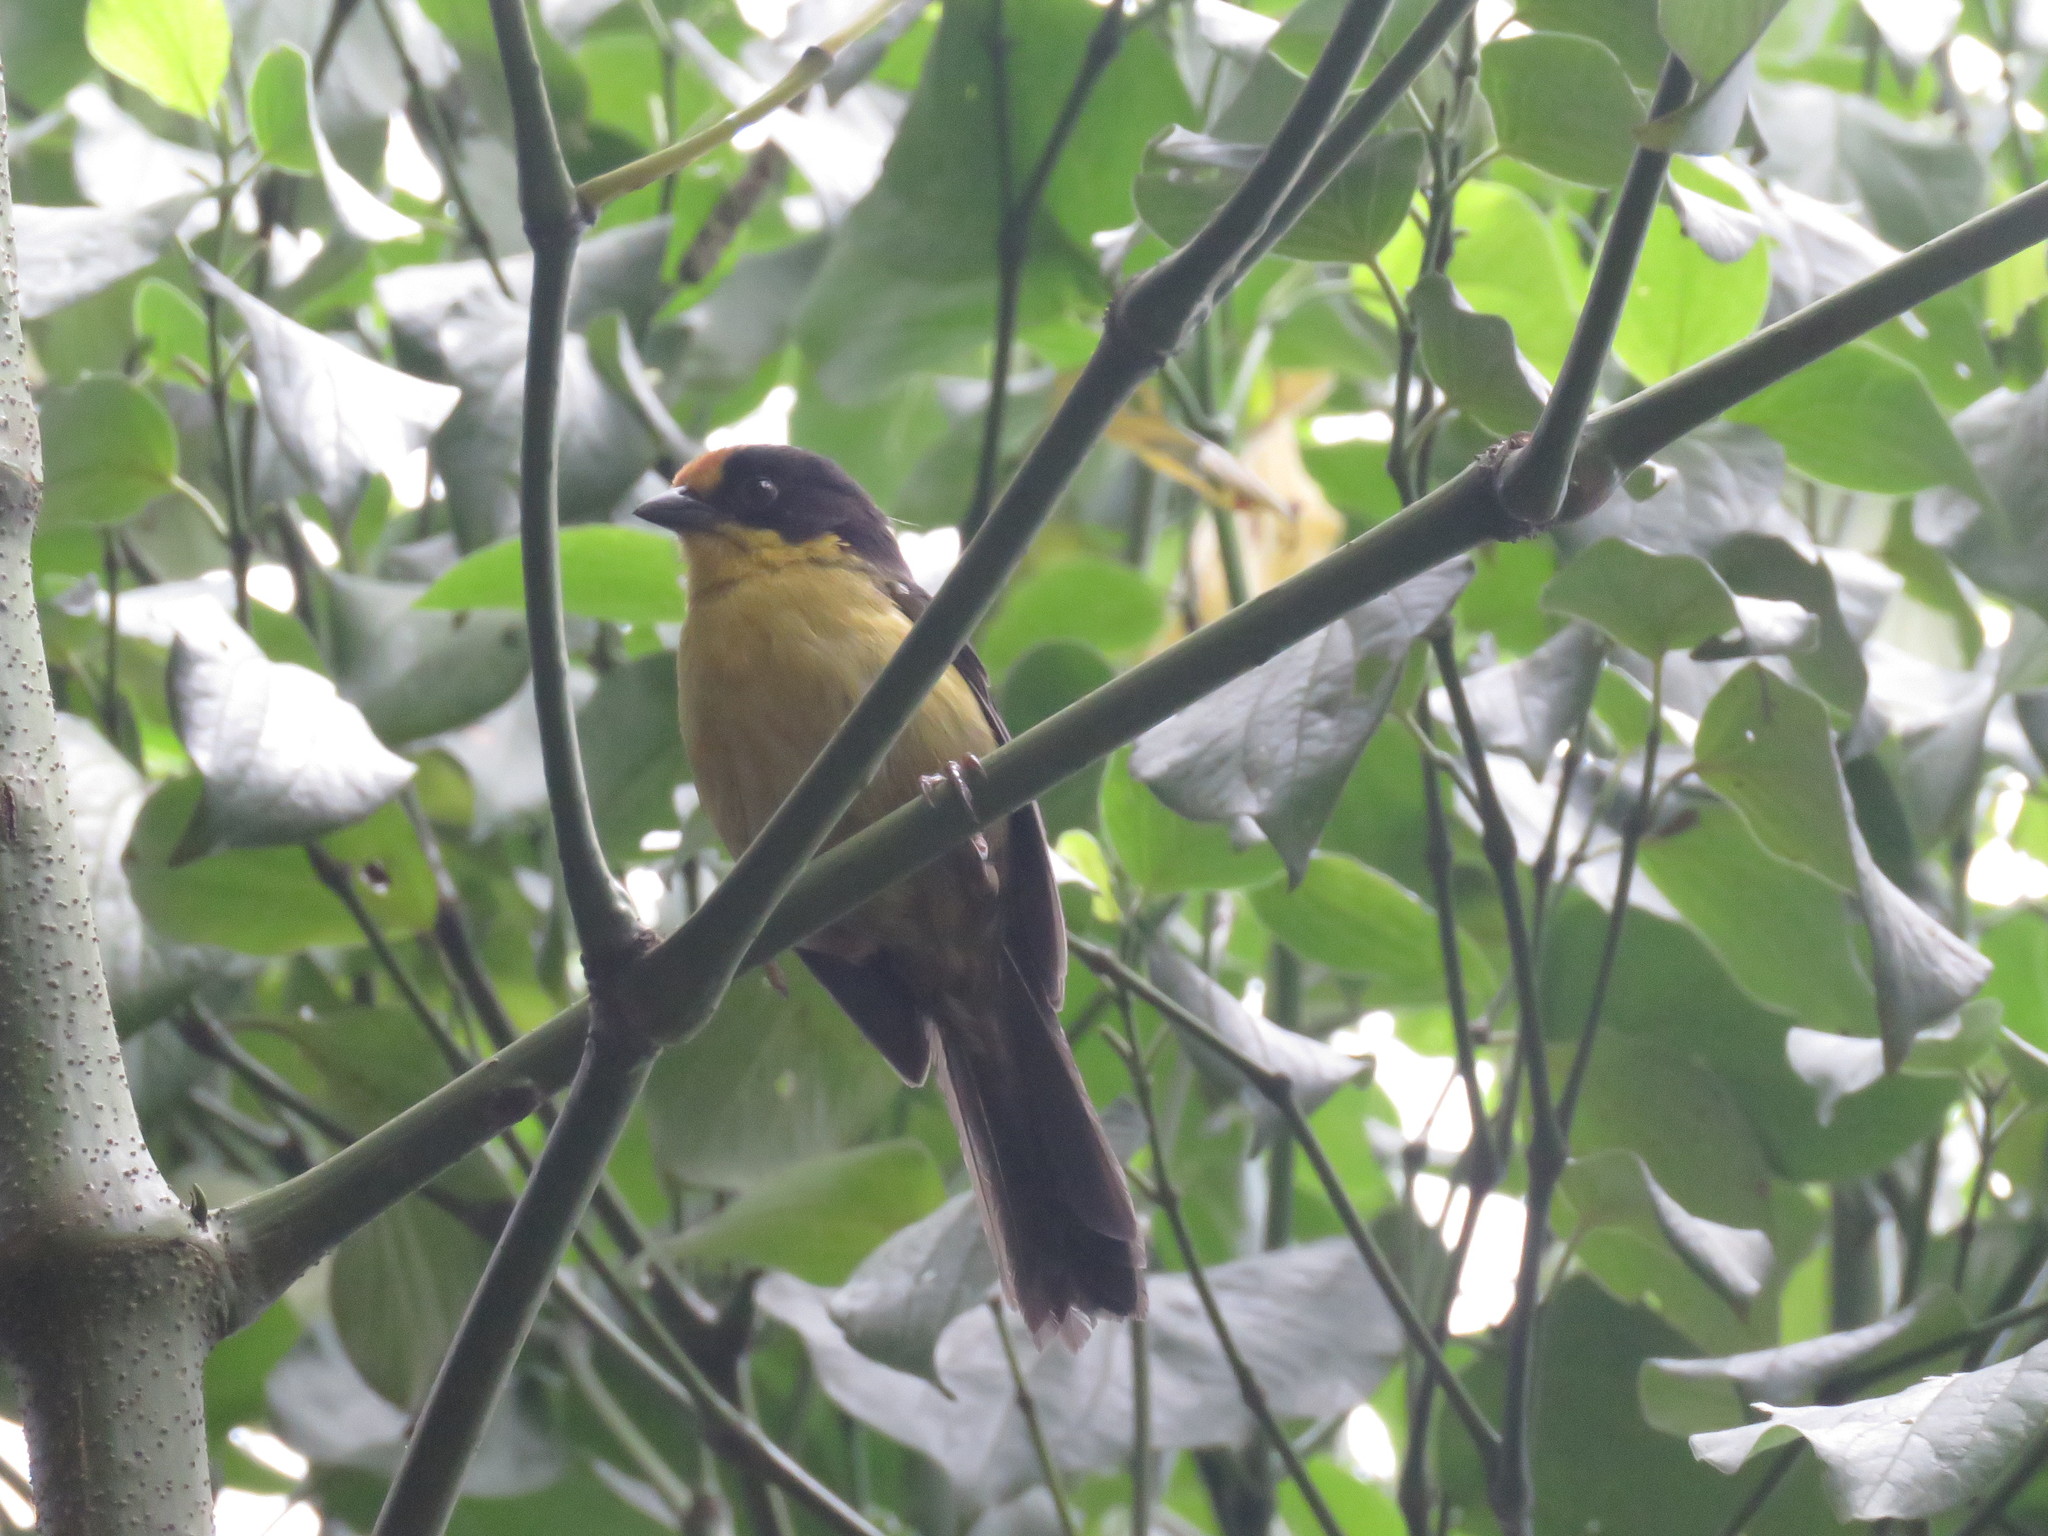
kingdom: Animalia
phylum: Chordata
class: Aves
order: Passeriformes
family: Passerellidae
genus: Atlapetes
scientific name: Atlapetes pallidinucha
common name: Pale-naped brushfinch
